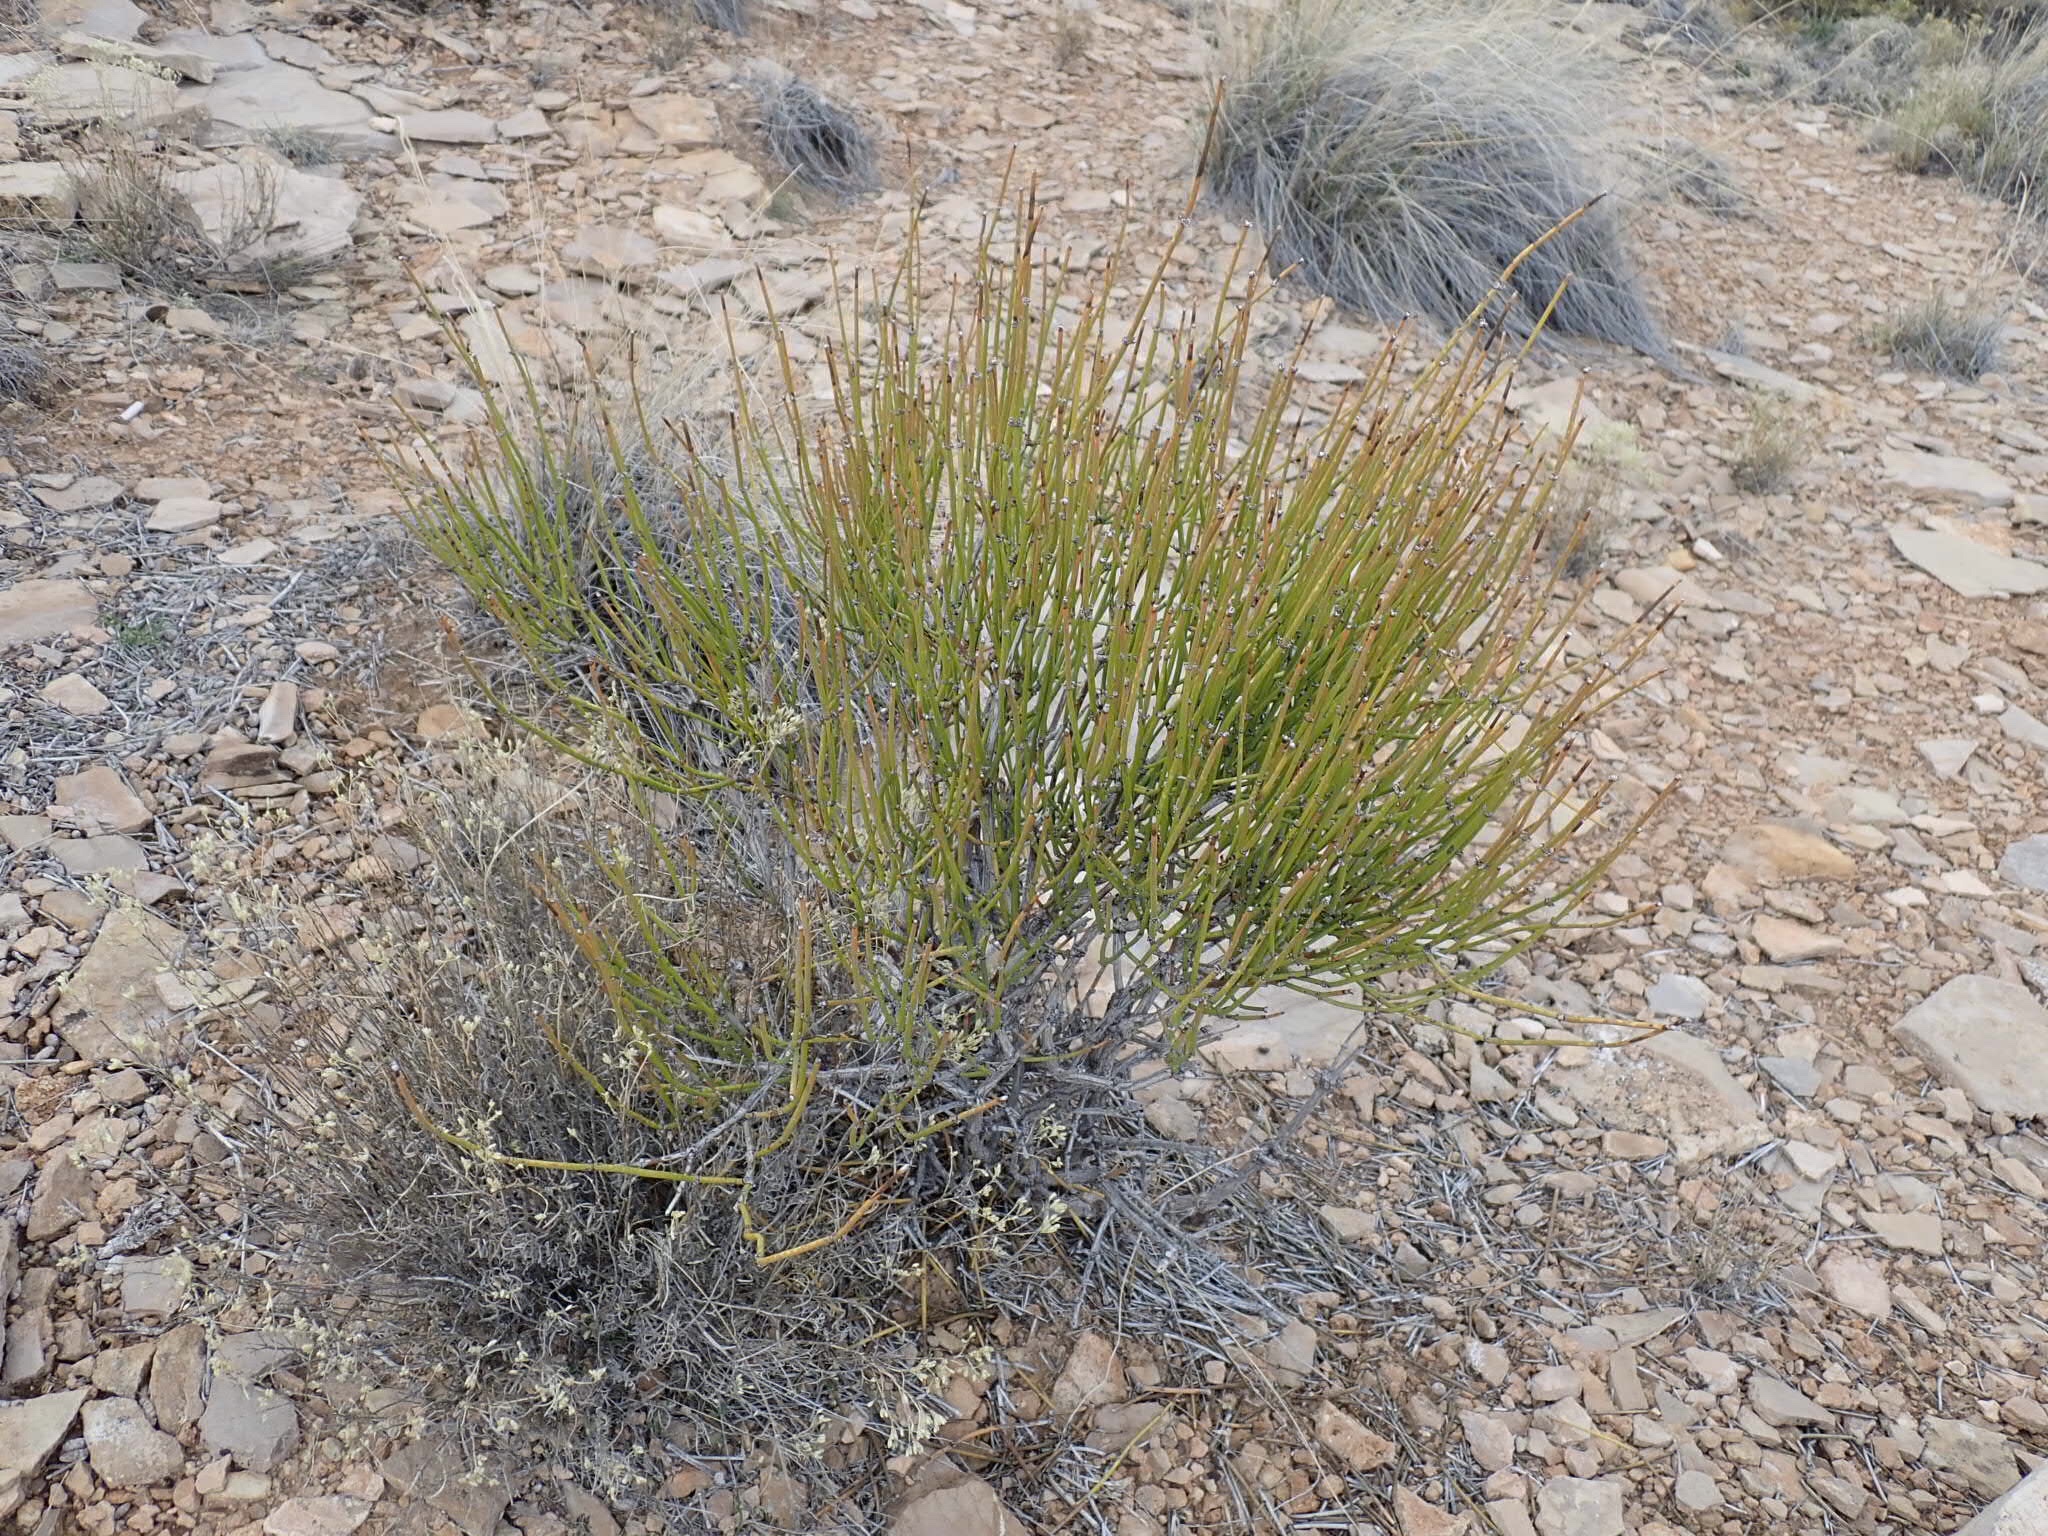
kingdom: Plantae
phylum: Tracheophyta
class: Gnetopsida
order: Ephedrales
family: Ephedraceae
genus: Ephedra
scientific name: Ephedra viridis
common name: Green ephedra
